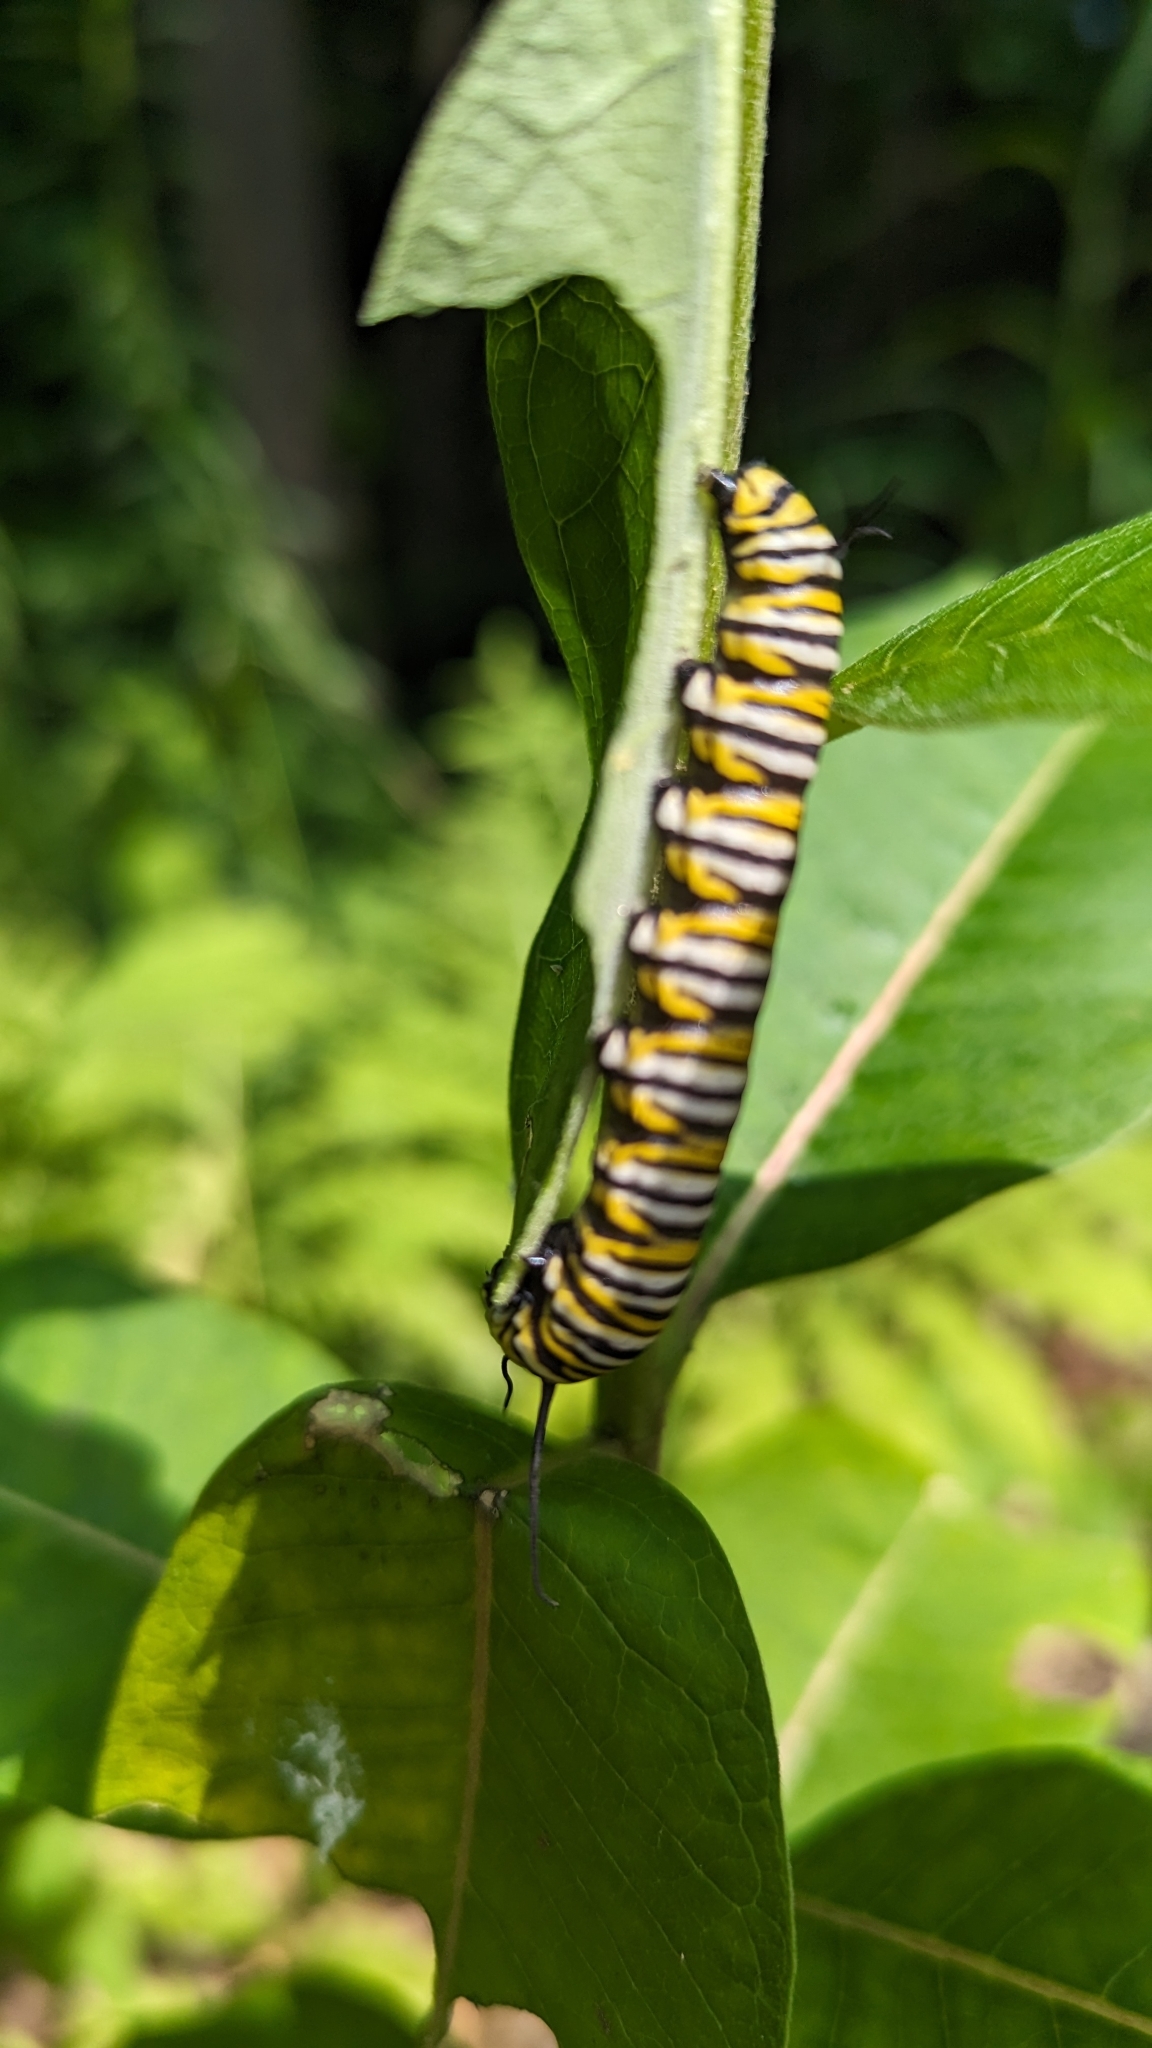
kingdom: Animalia
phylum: Arthropoda
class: Insecta
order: Lepidoptera
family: Nymphalidae
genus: Danaus
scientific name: Danaus plexippus
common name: Monarch
